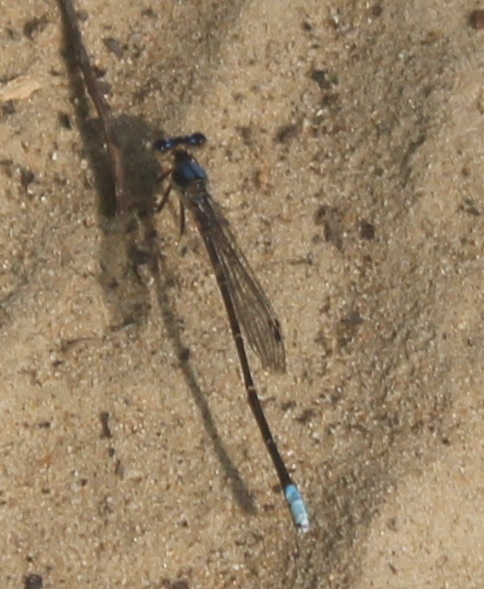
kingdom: Animalia
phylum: Arthropoda
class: Insecta
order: Odonata
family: Coenagrionidae
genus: Argia
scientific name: Argia apicalis
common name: Blue-fronted dancer
